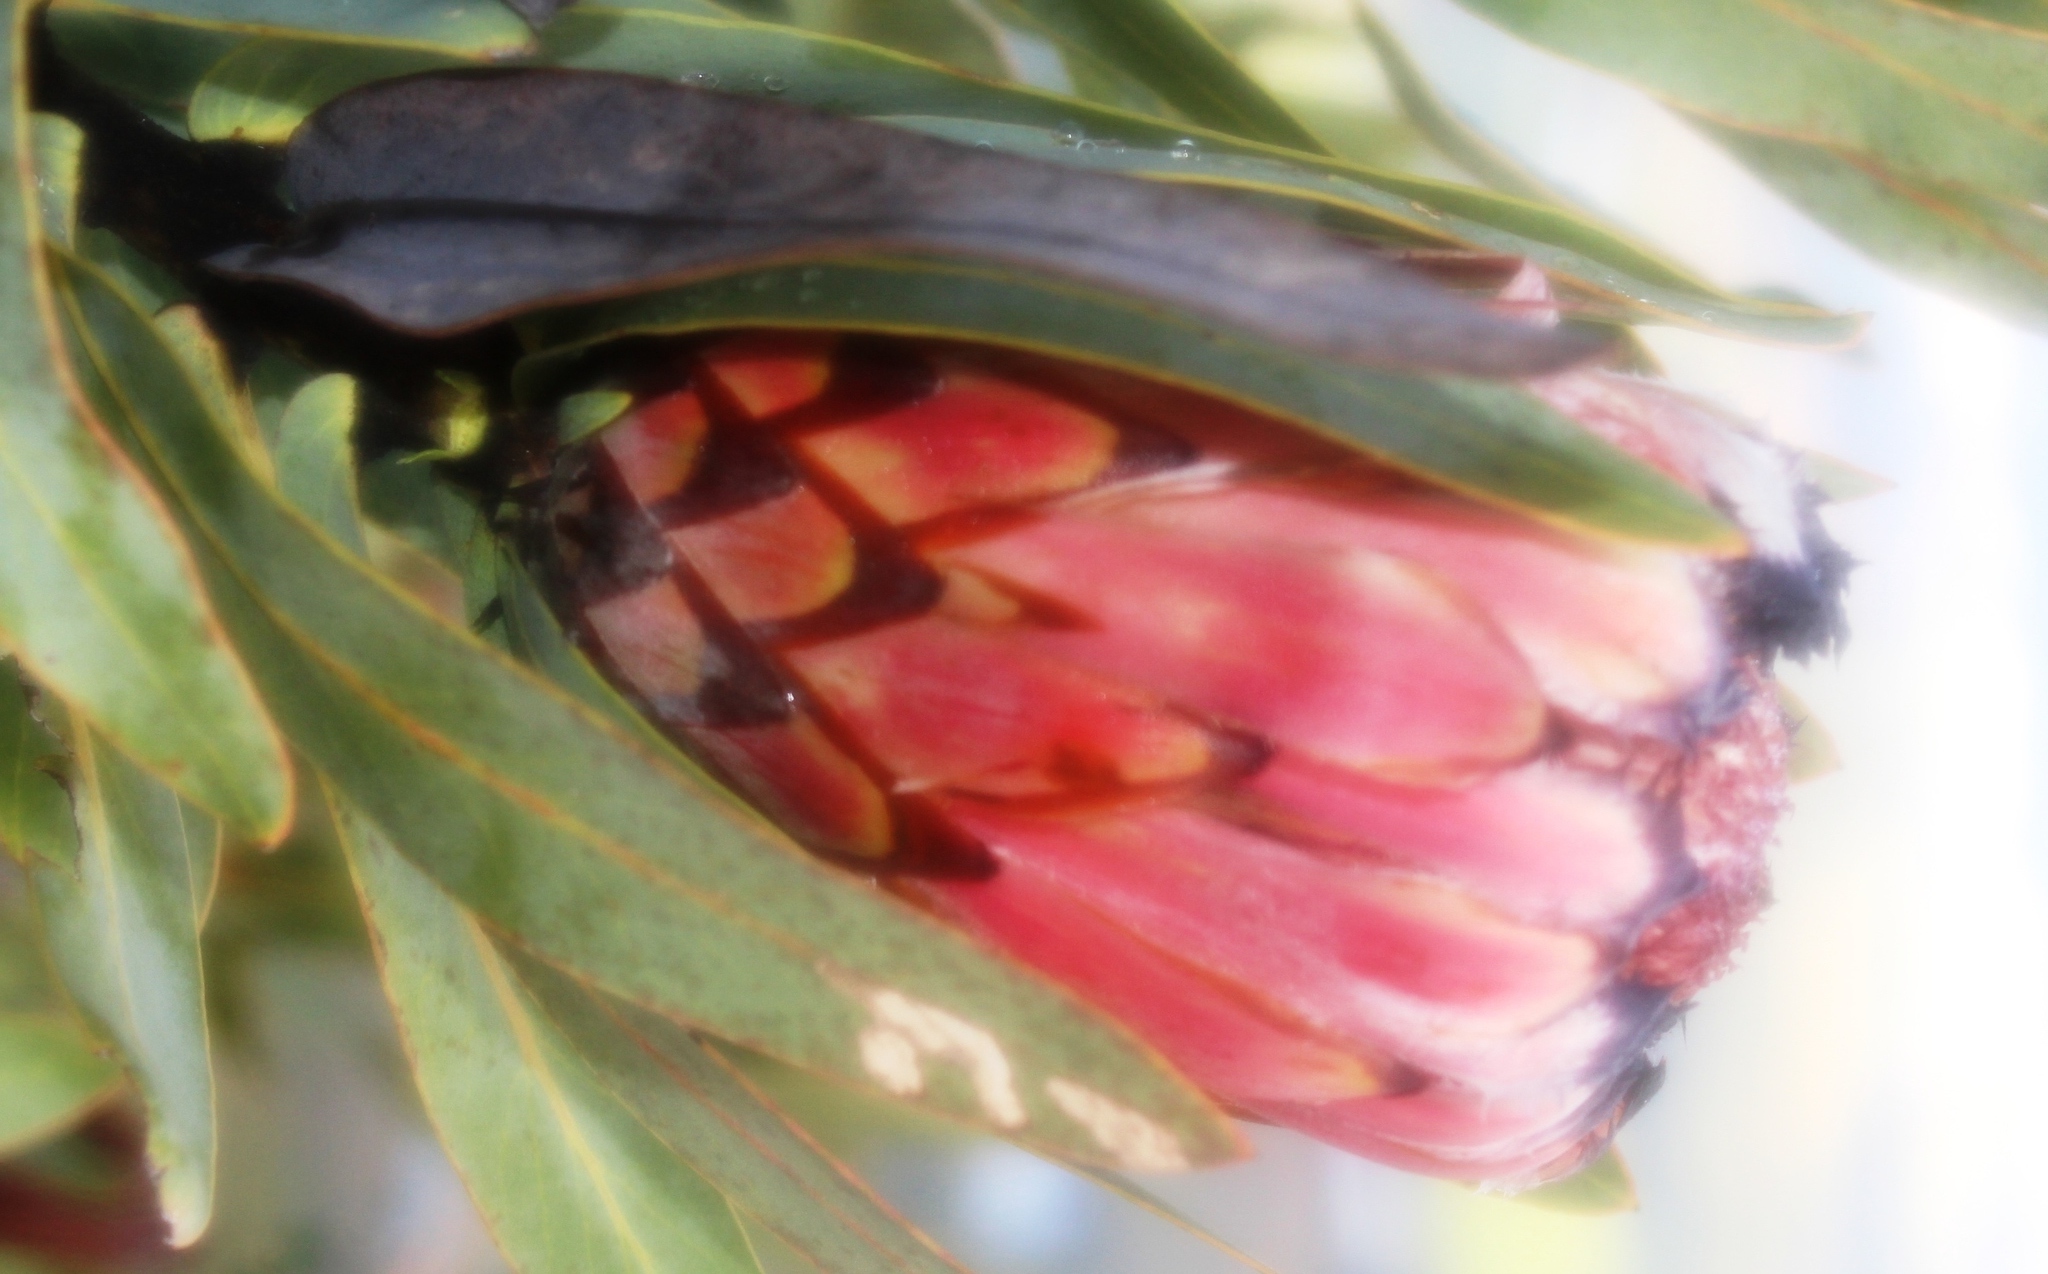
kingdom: Plantae
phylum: Tracheophyta
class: Magnoliopsida
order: Proteales
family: Proteaceae
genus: Protea
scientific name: Protea laurifolia
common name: Grey-leaf sugarbsh
